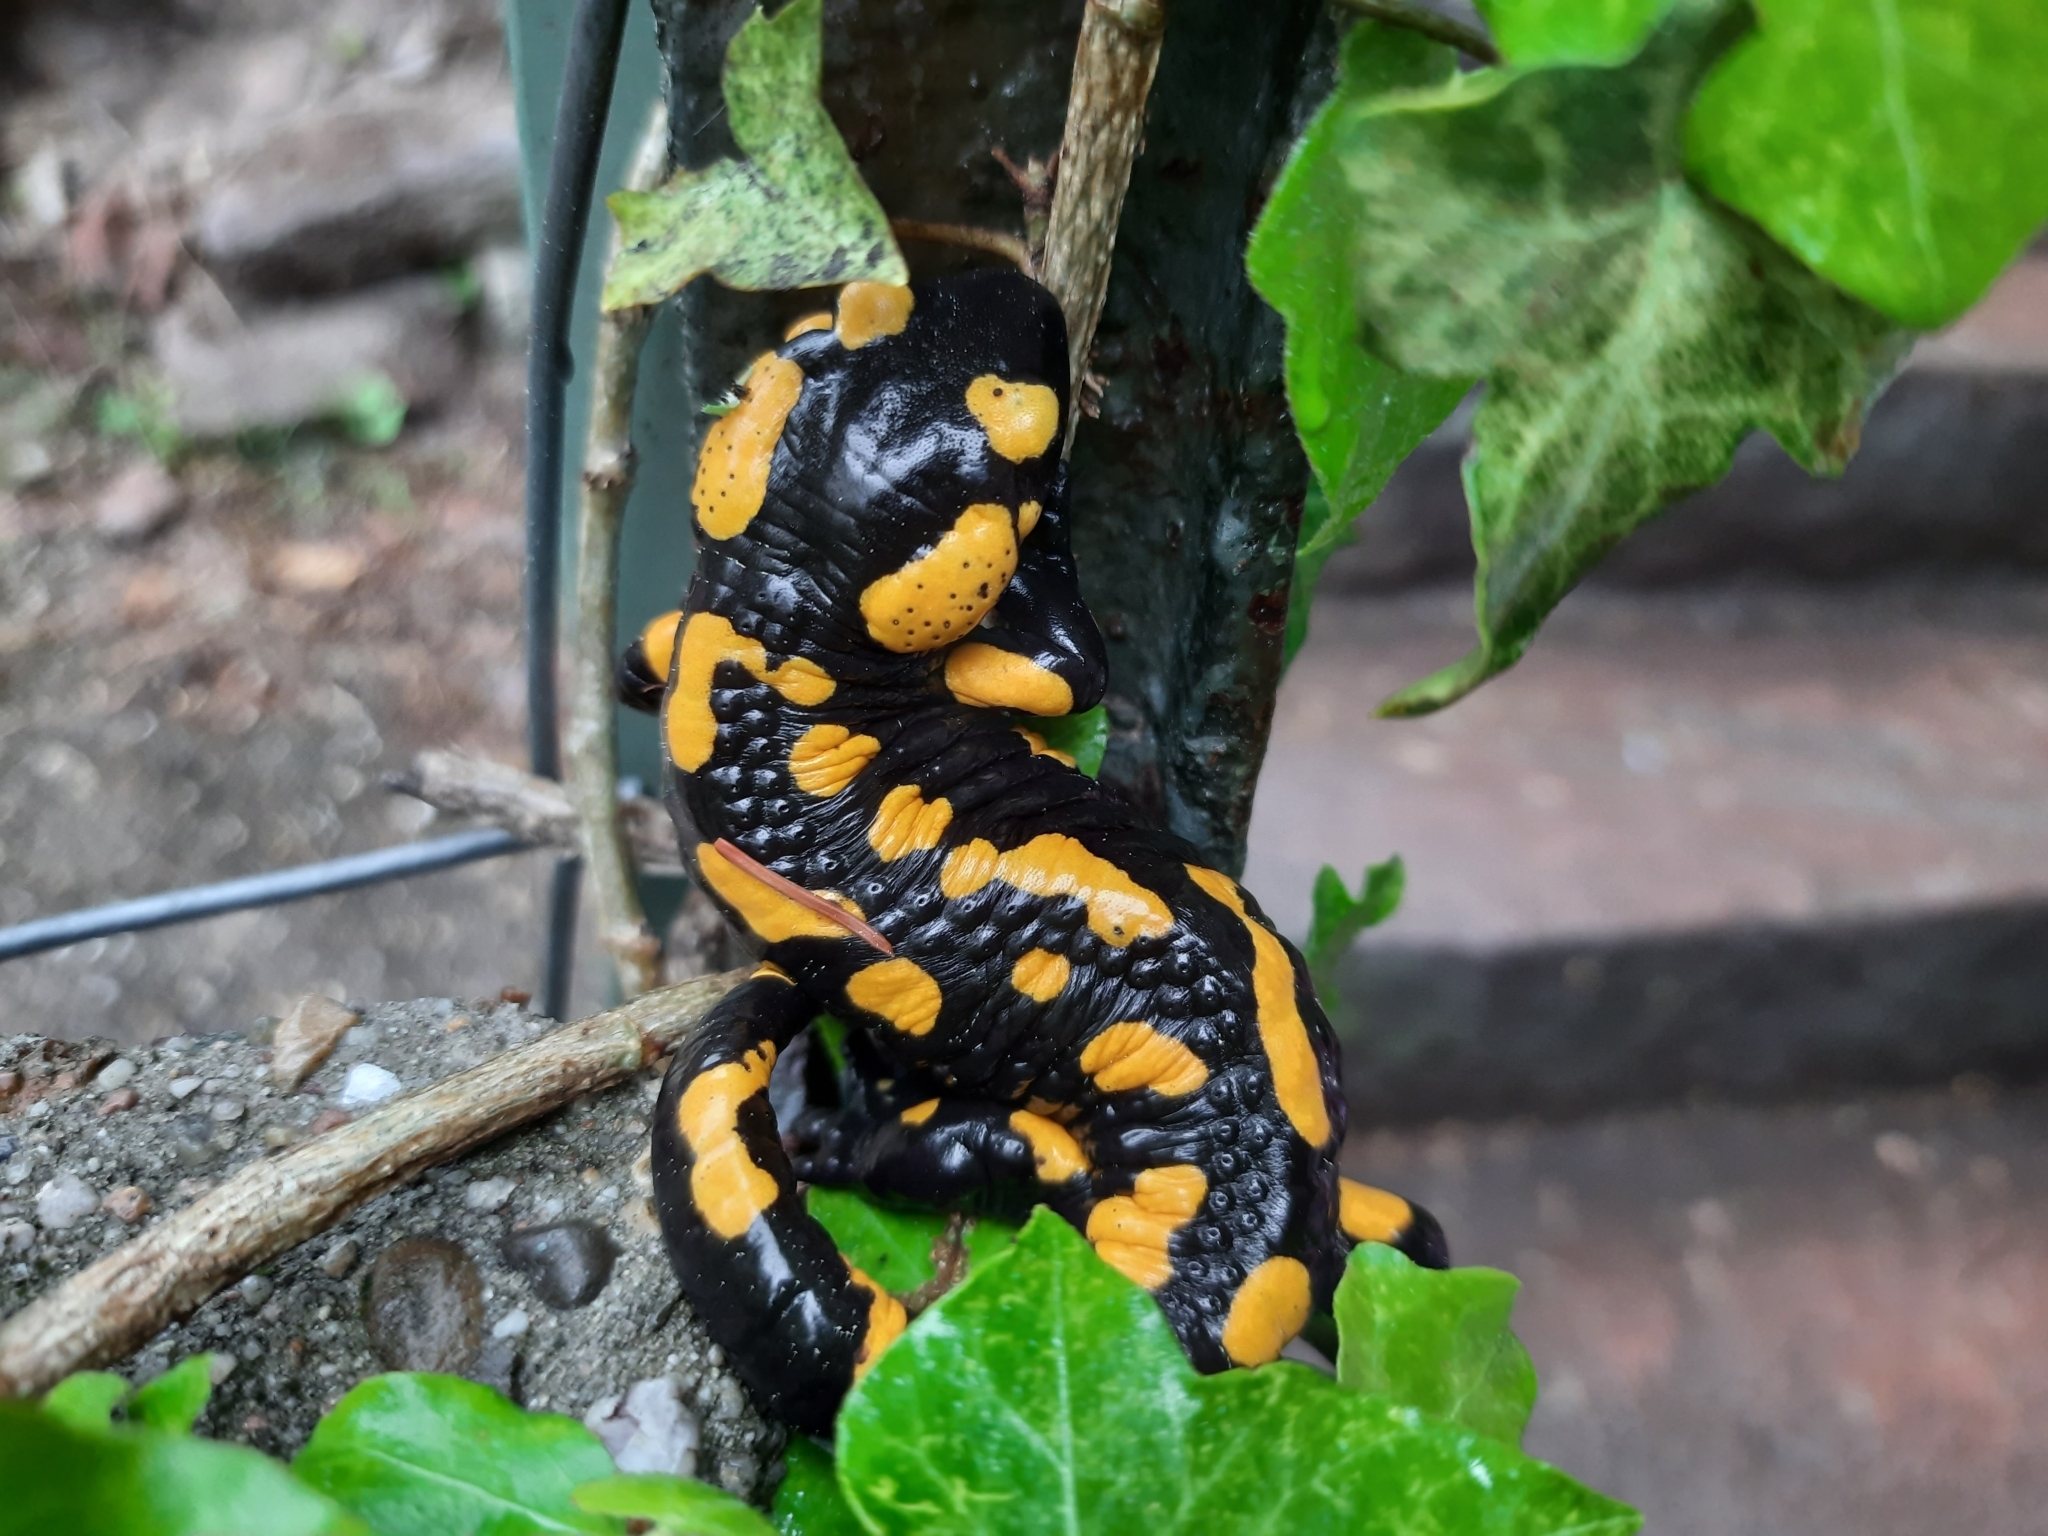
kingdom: Animalia
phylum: Chordata
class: Amphibia
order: Caudata
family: Salamandridae
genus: Salamandra
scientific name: Salamandra salamandra
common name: Fire salamander
